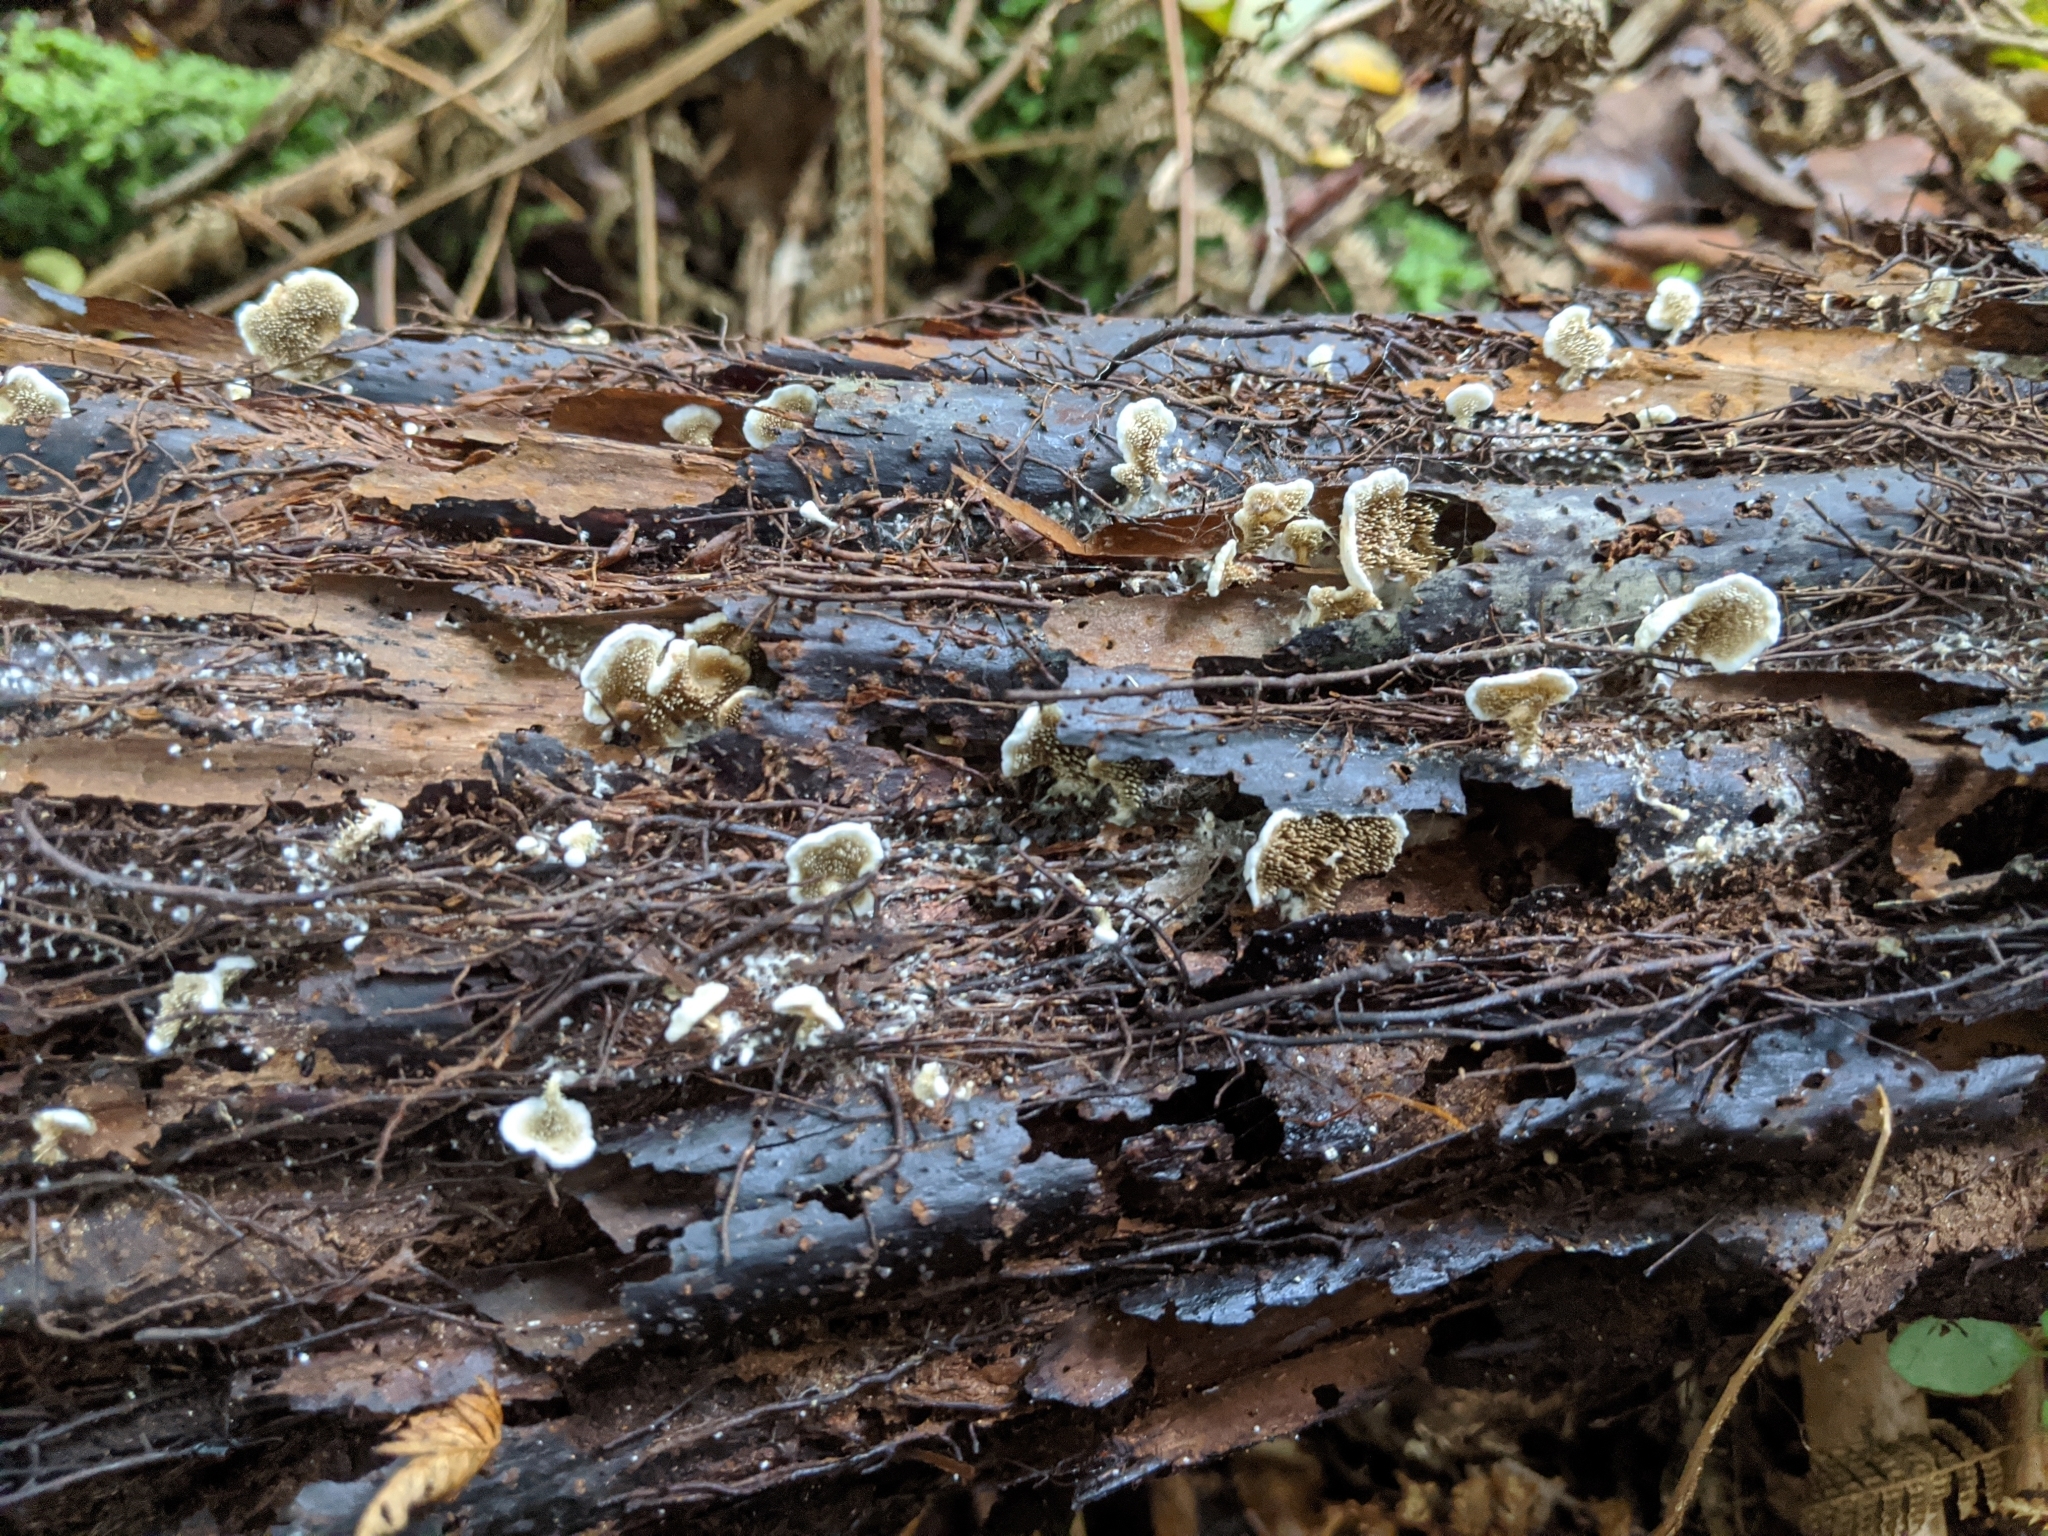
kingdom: Fungi
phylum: Basidiomycota
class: Agaricomycetes
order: Gomphales
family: Clavariadelphaceae
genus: Beenakia
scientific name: Beenakia dacostae
